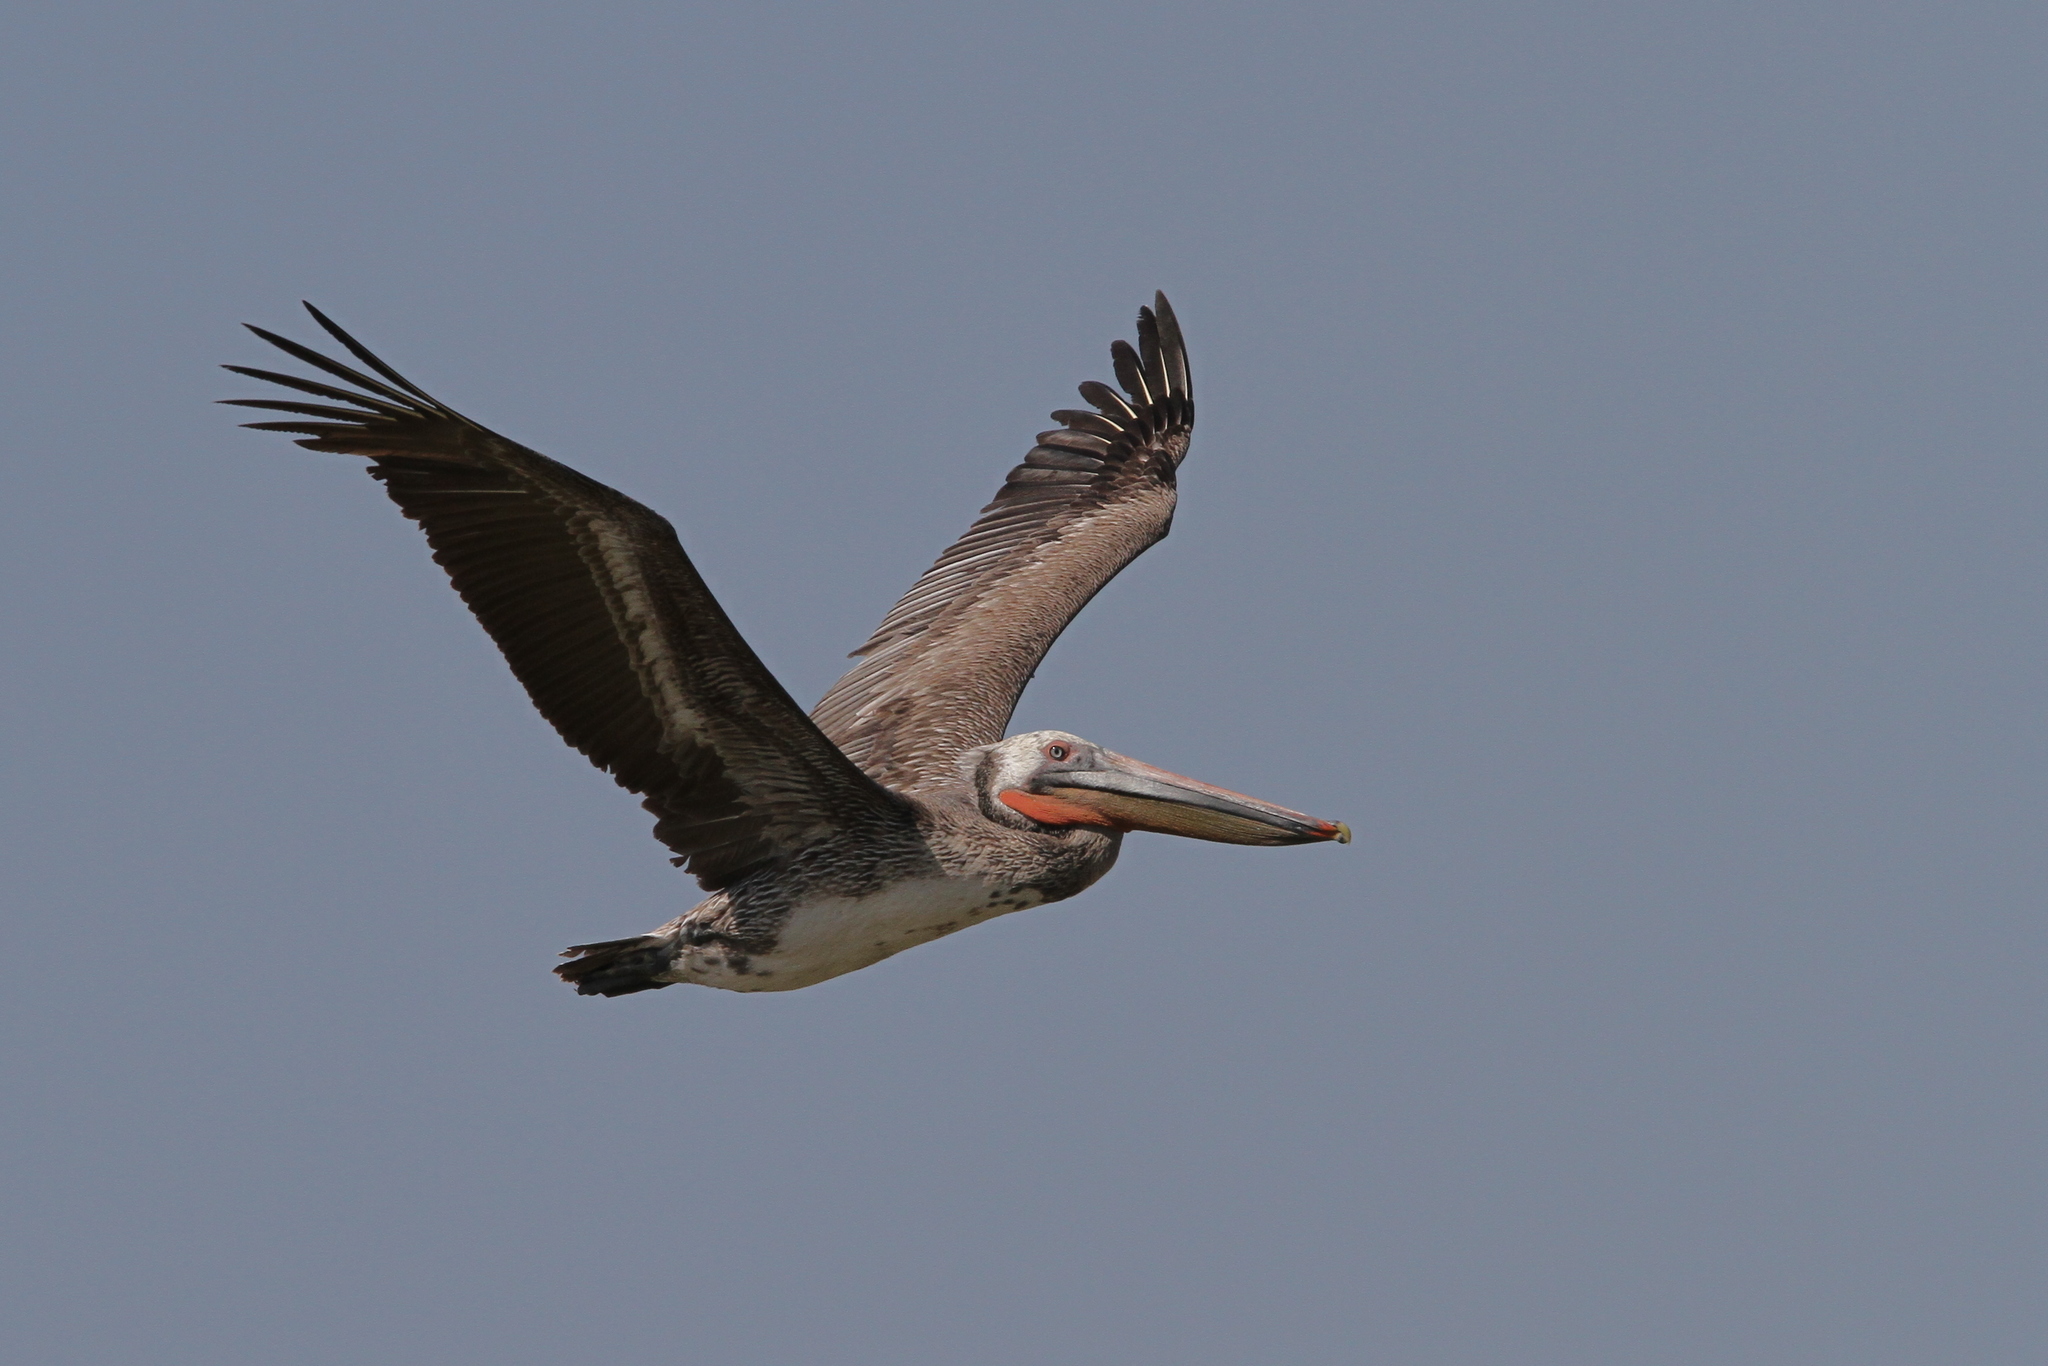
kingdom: Animalia
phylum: Chordata
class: Aves
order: Pelecaniformes
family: Pelecanidae
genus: Pelecanus
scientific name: Pelecanus occidentalis
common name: Brown pelican
